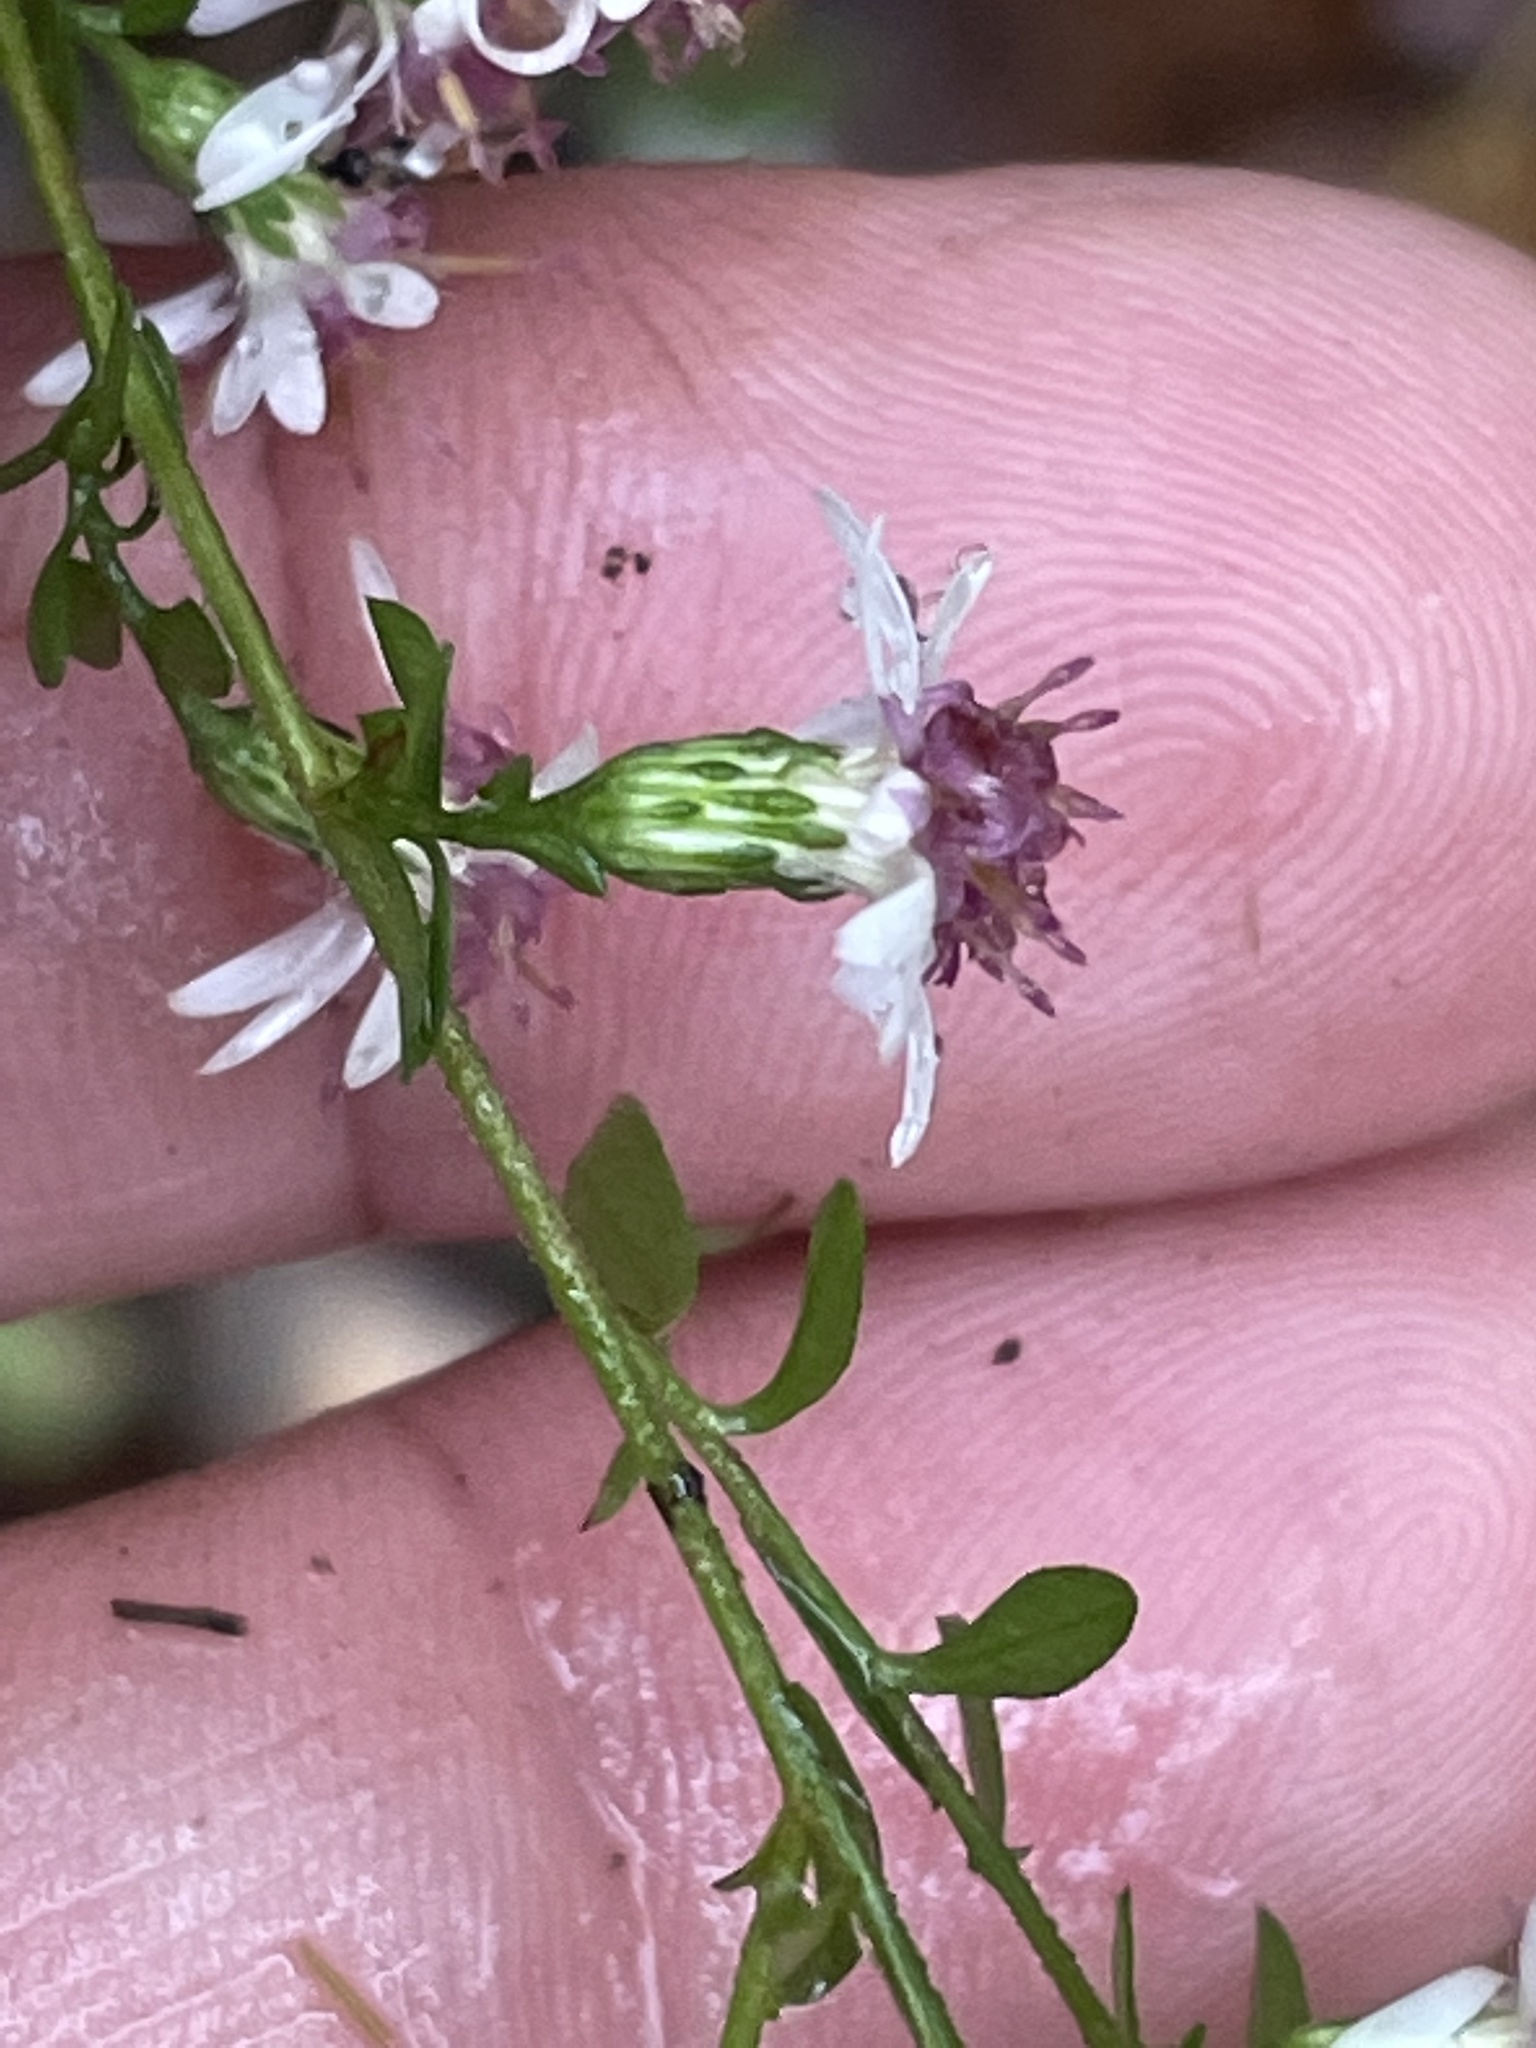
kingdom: Plantae
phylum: Tracheophyta
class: Magnoliopsida
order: Asterales
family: Asteraceae
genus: Symphyotrichum
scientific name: Symphyotrichum lateriflorum
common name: Calico aster
